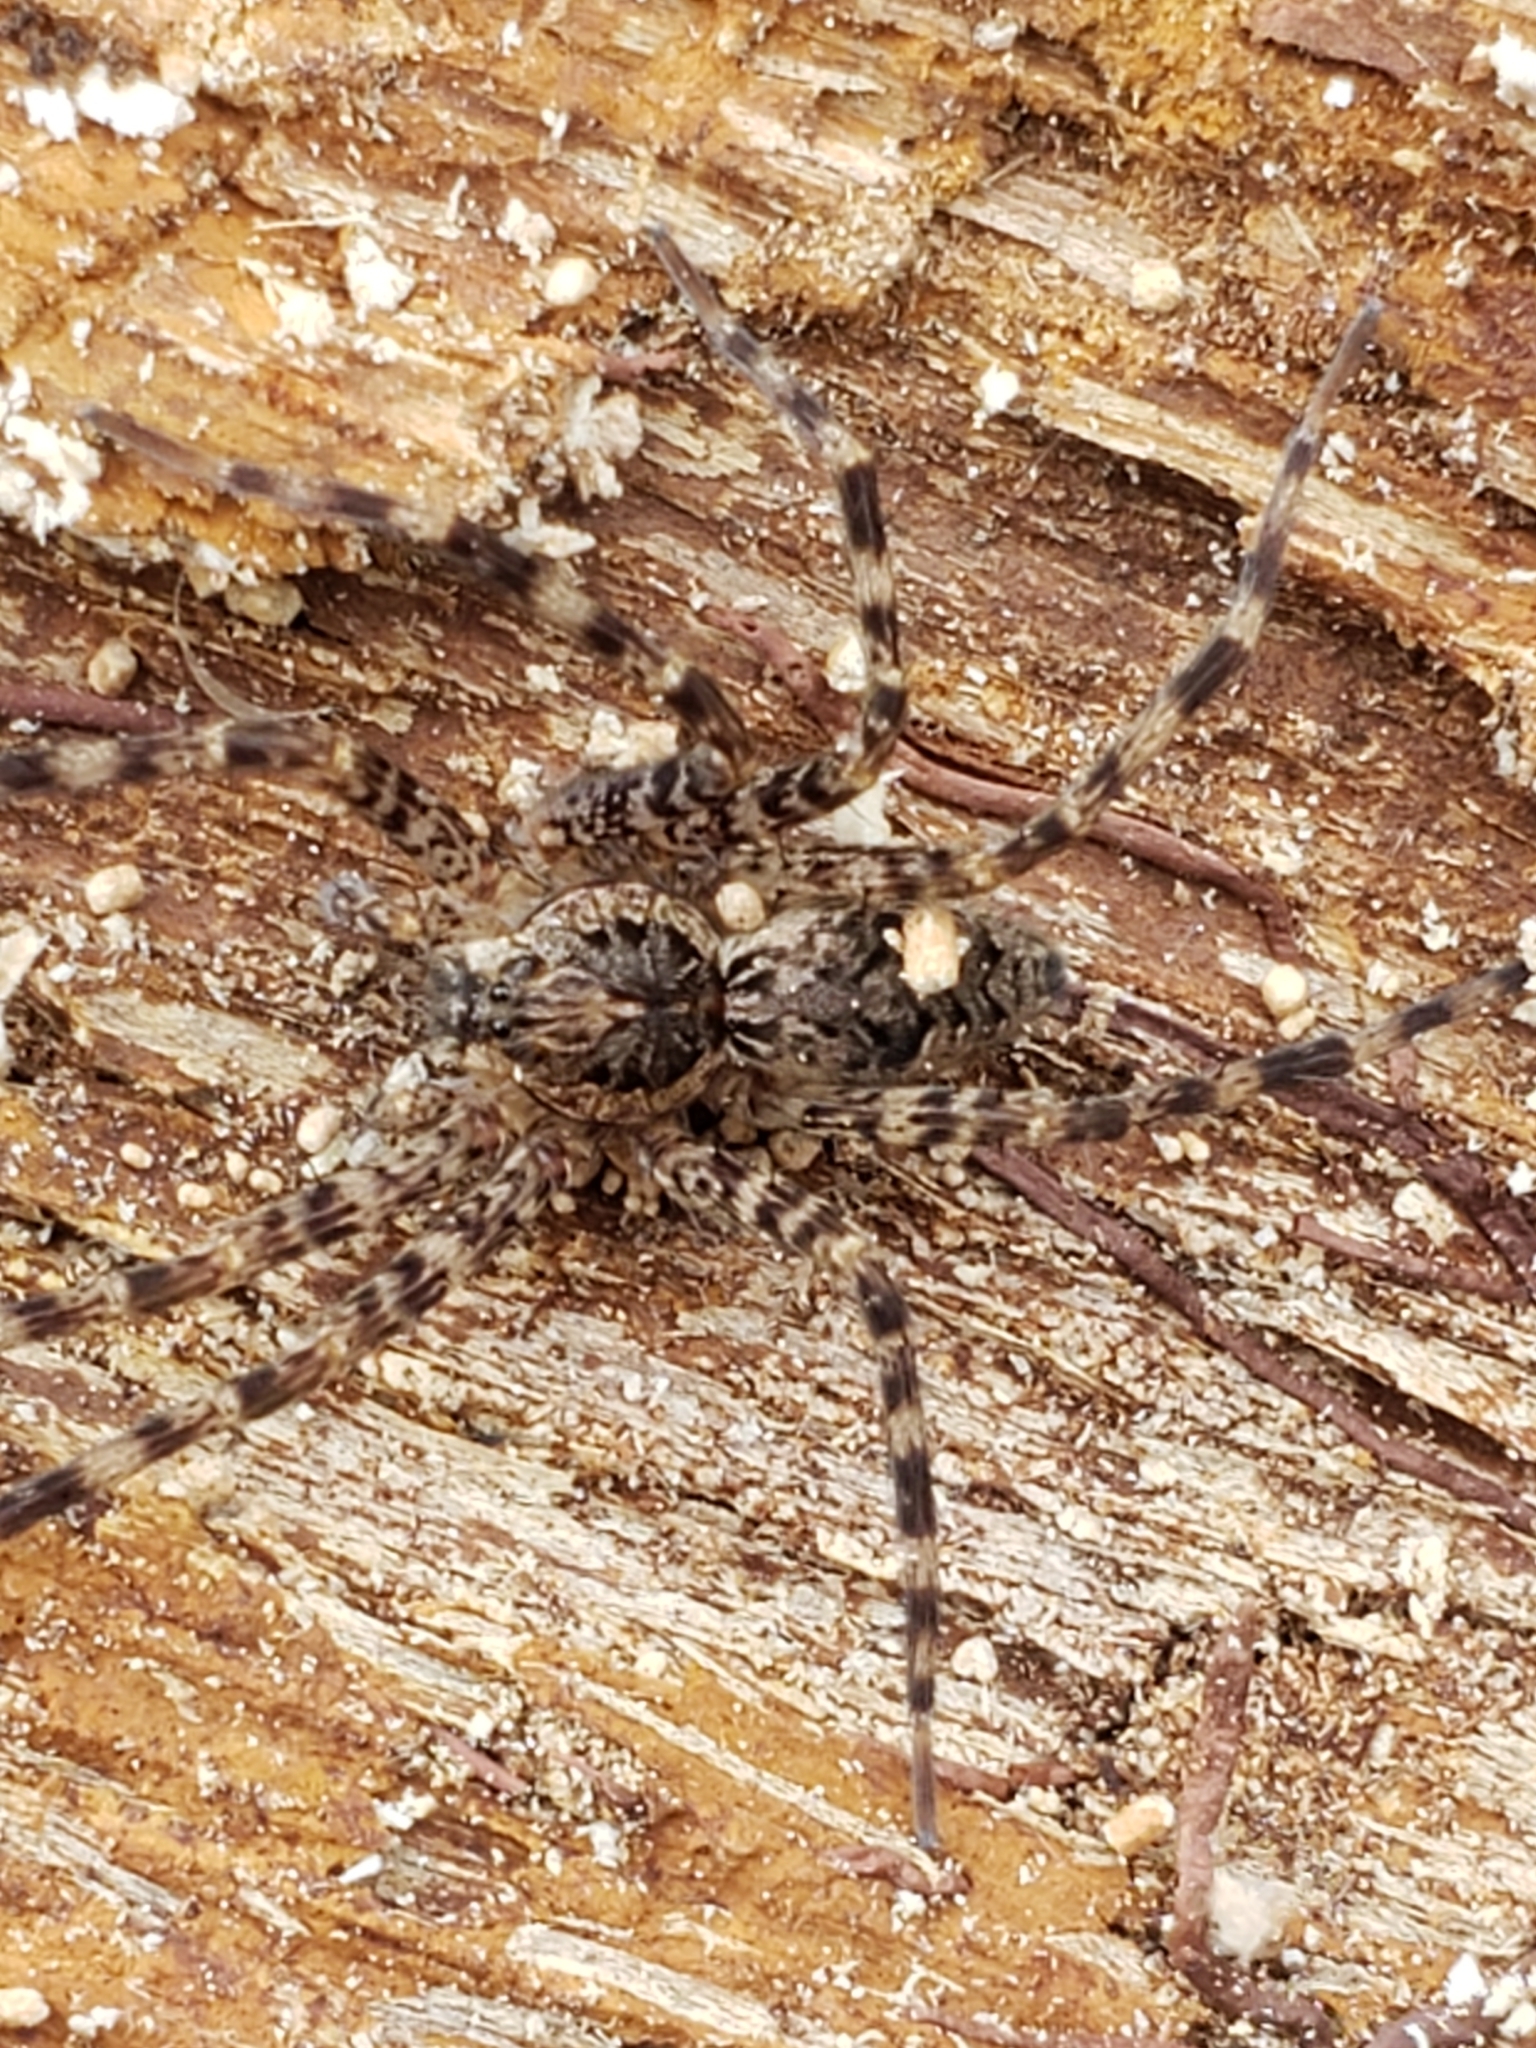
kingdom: Animalia
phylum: Arthropoda
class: Arachnida
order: Araneae
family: Pisauridae
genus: Dolomedes
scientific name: Dolomedes tenebrosus
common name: Dark fishing spider
